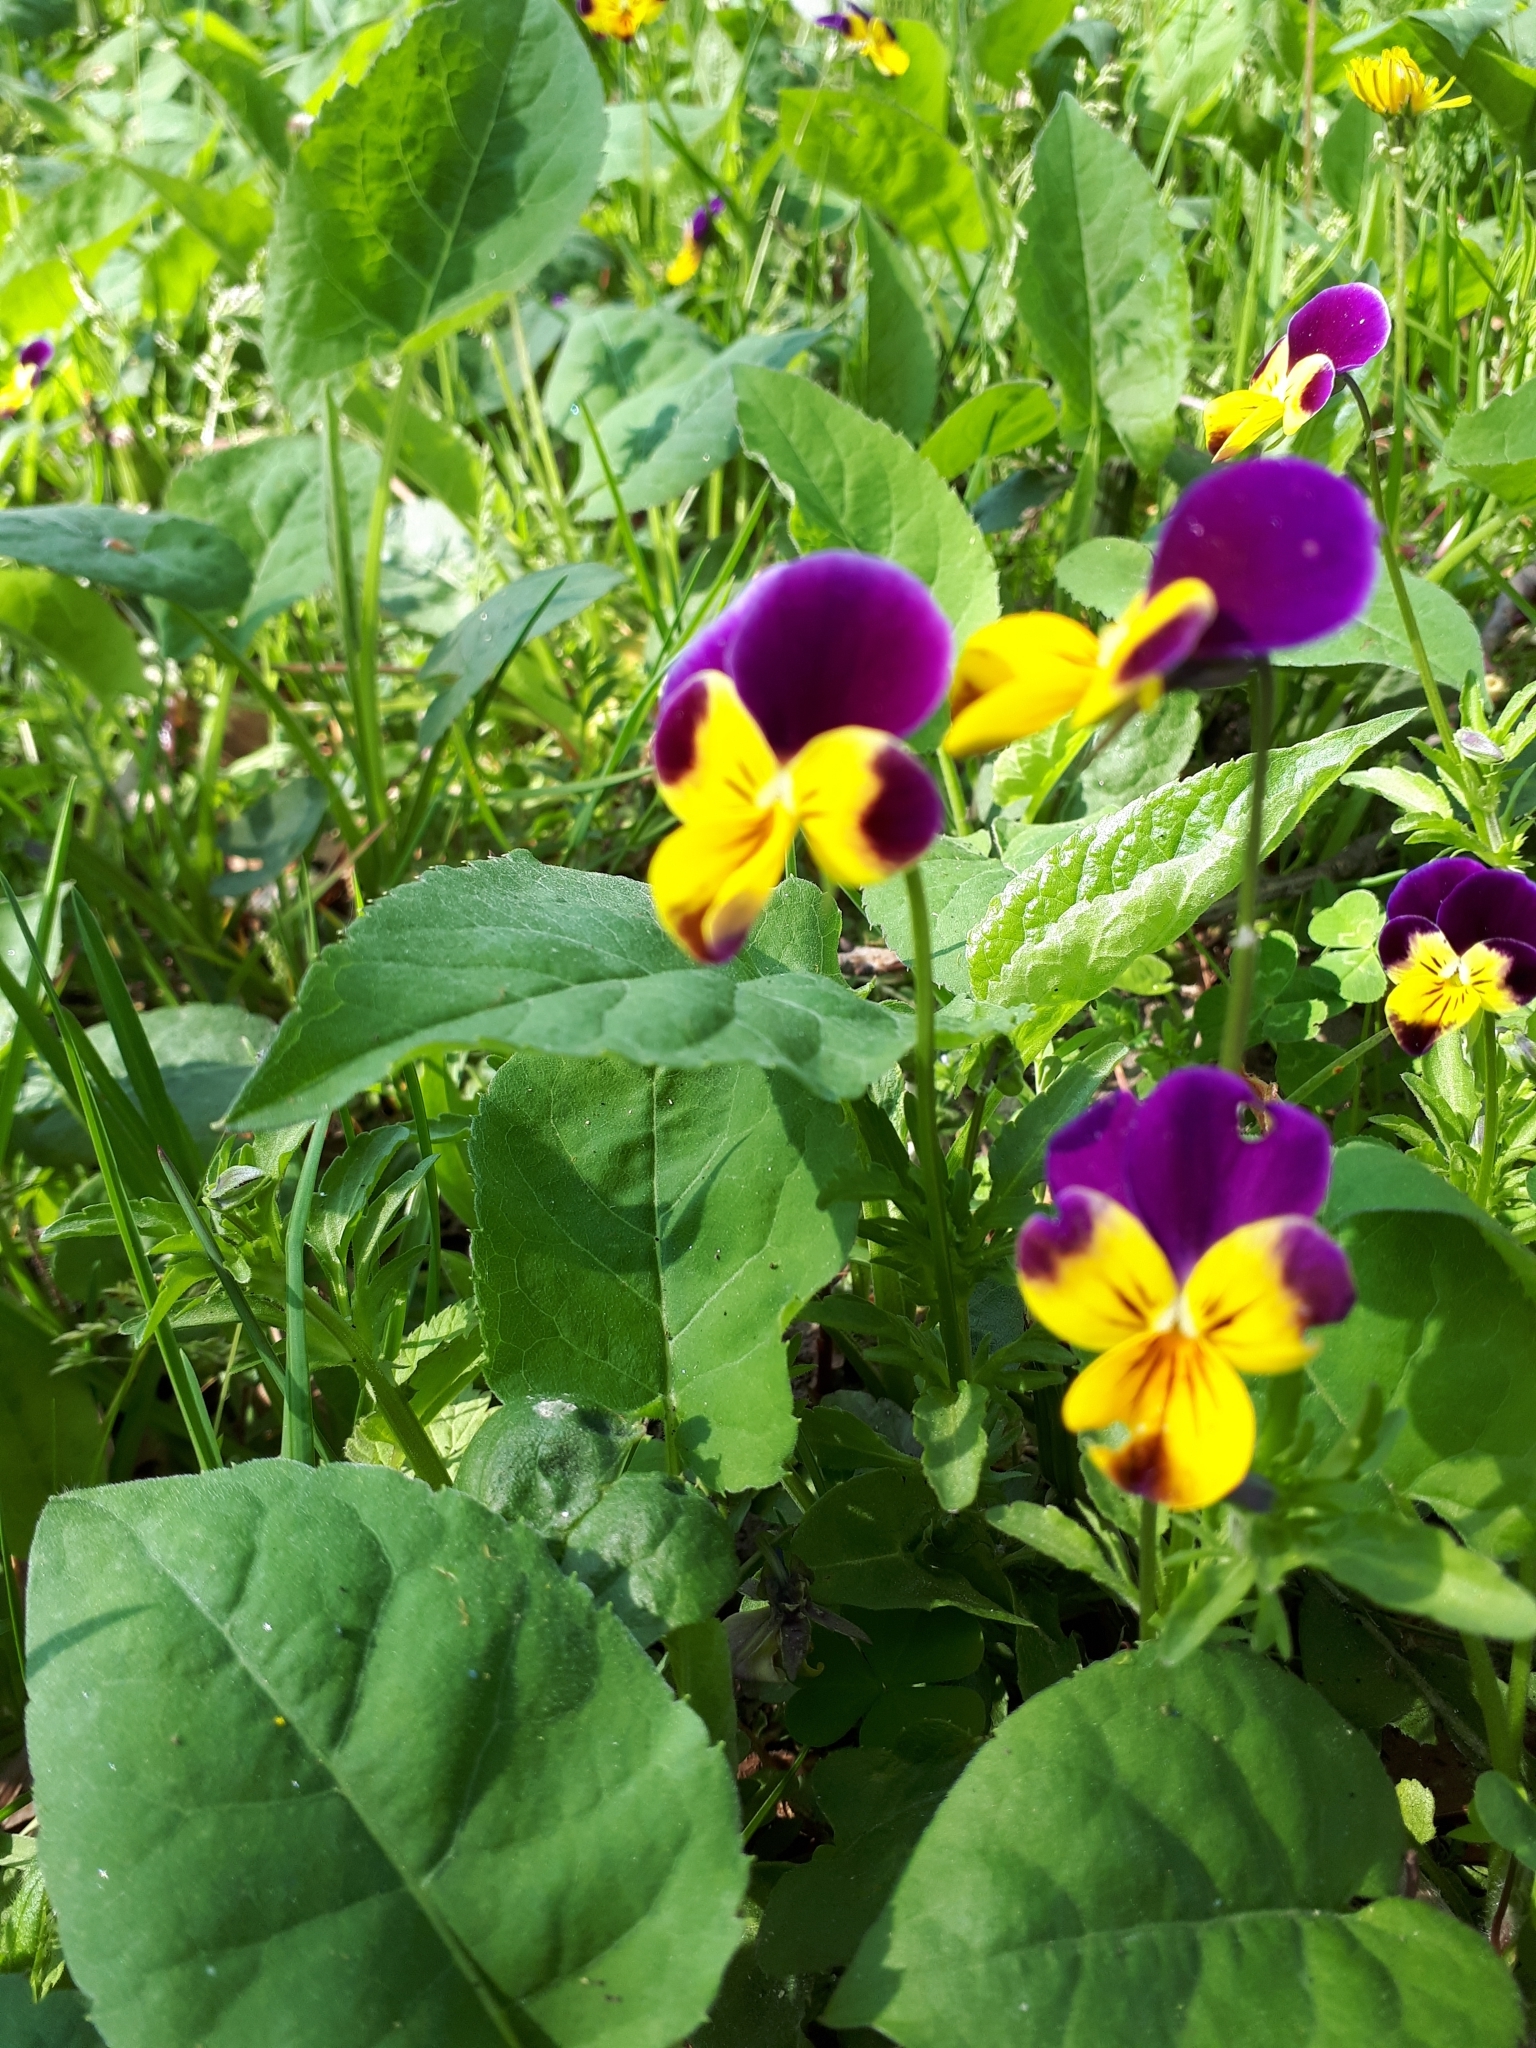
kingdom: Plantae
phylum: Tracheophyta
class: Magnoliopsida
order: Malpighiales
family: Violaceae
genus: Viola
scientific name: Viola williamsii
